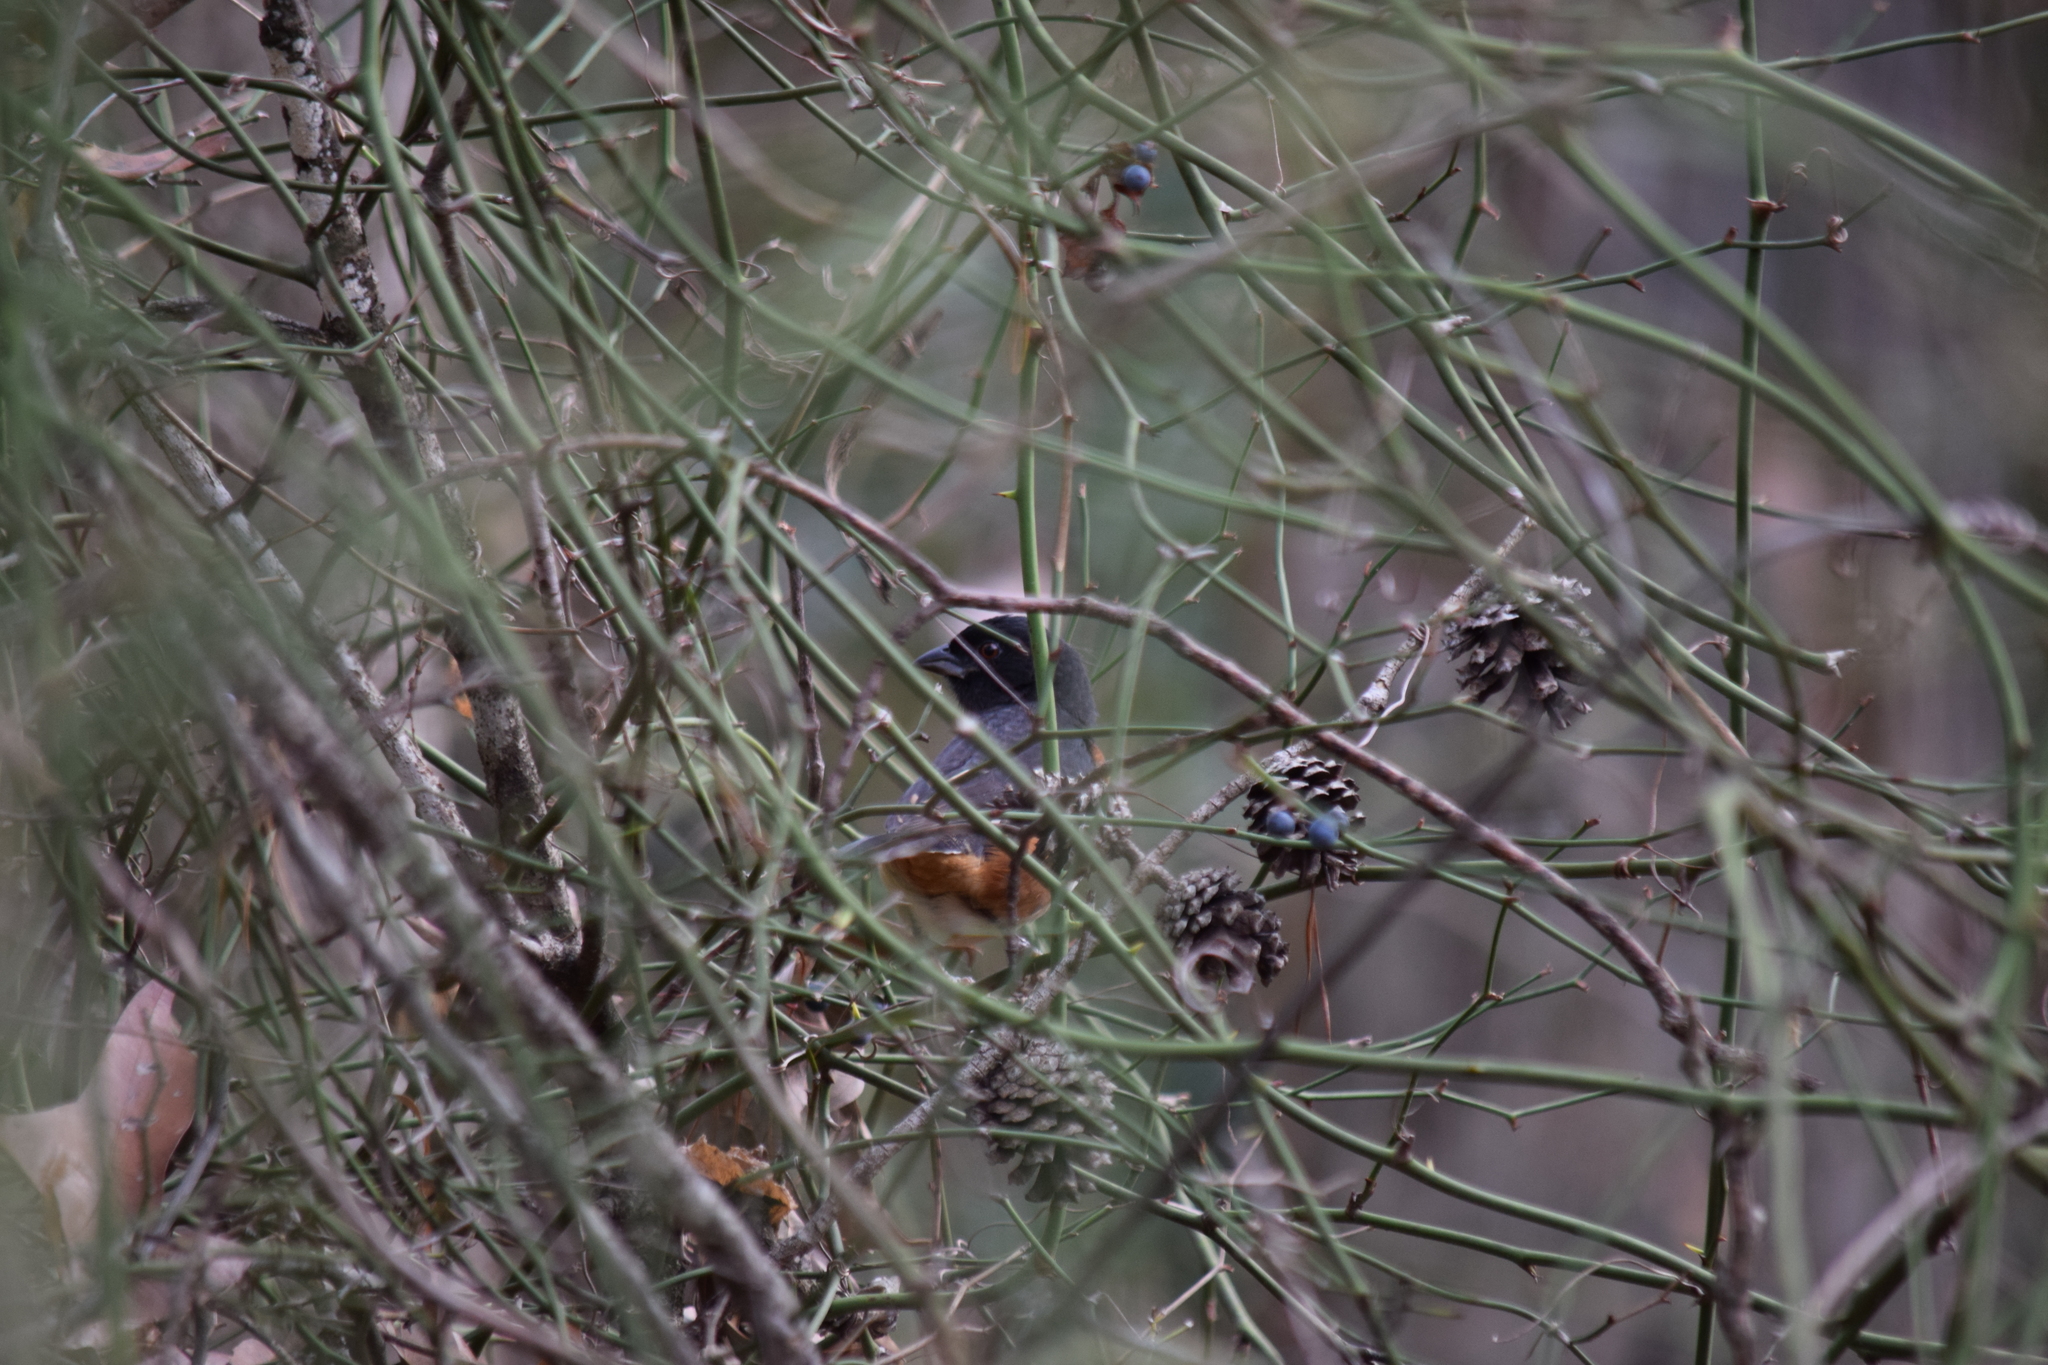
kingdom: Animalia
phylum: Chordata
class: Aves
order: Passeriformes
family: Passerellidae
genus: Pipilo
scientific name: Pipilo erythrophthalmus
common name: Eastern towhee
